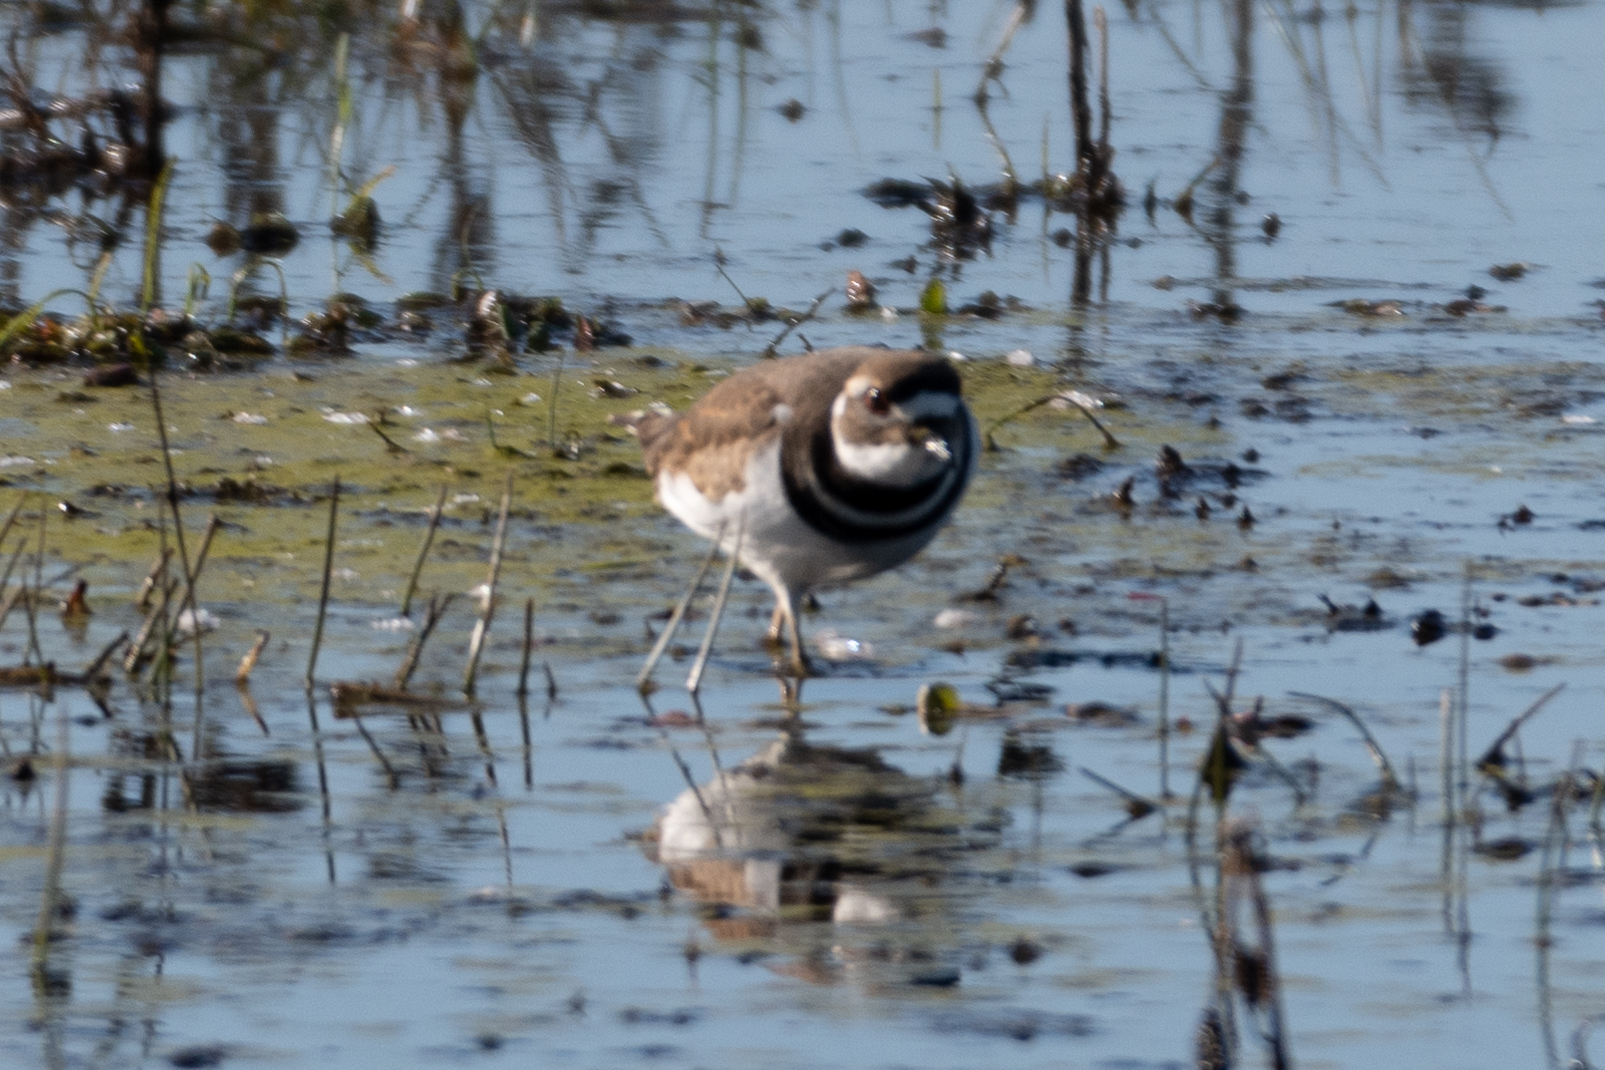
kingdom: Animalia
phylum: Chordata
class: Aves
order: Charadriiformes
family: Charadriidae
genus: Charadrius
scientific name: Charadrius vociferus
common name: Killdeer
